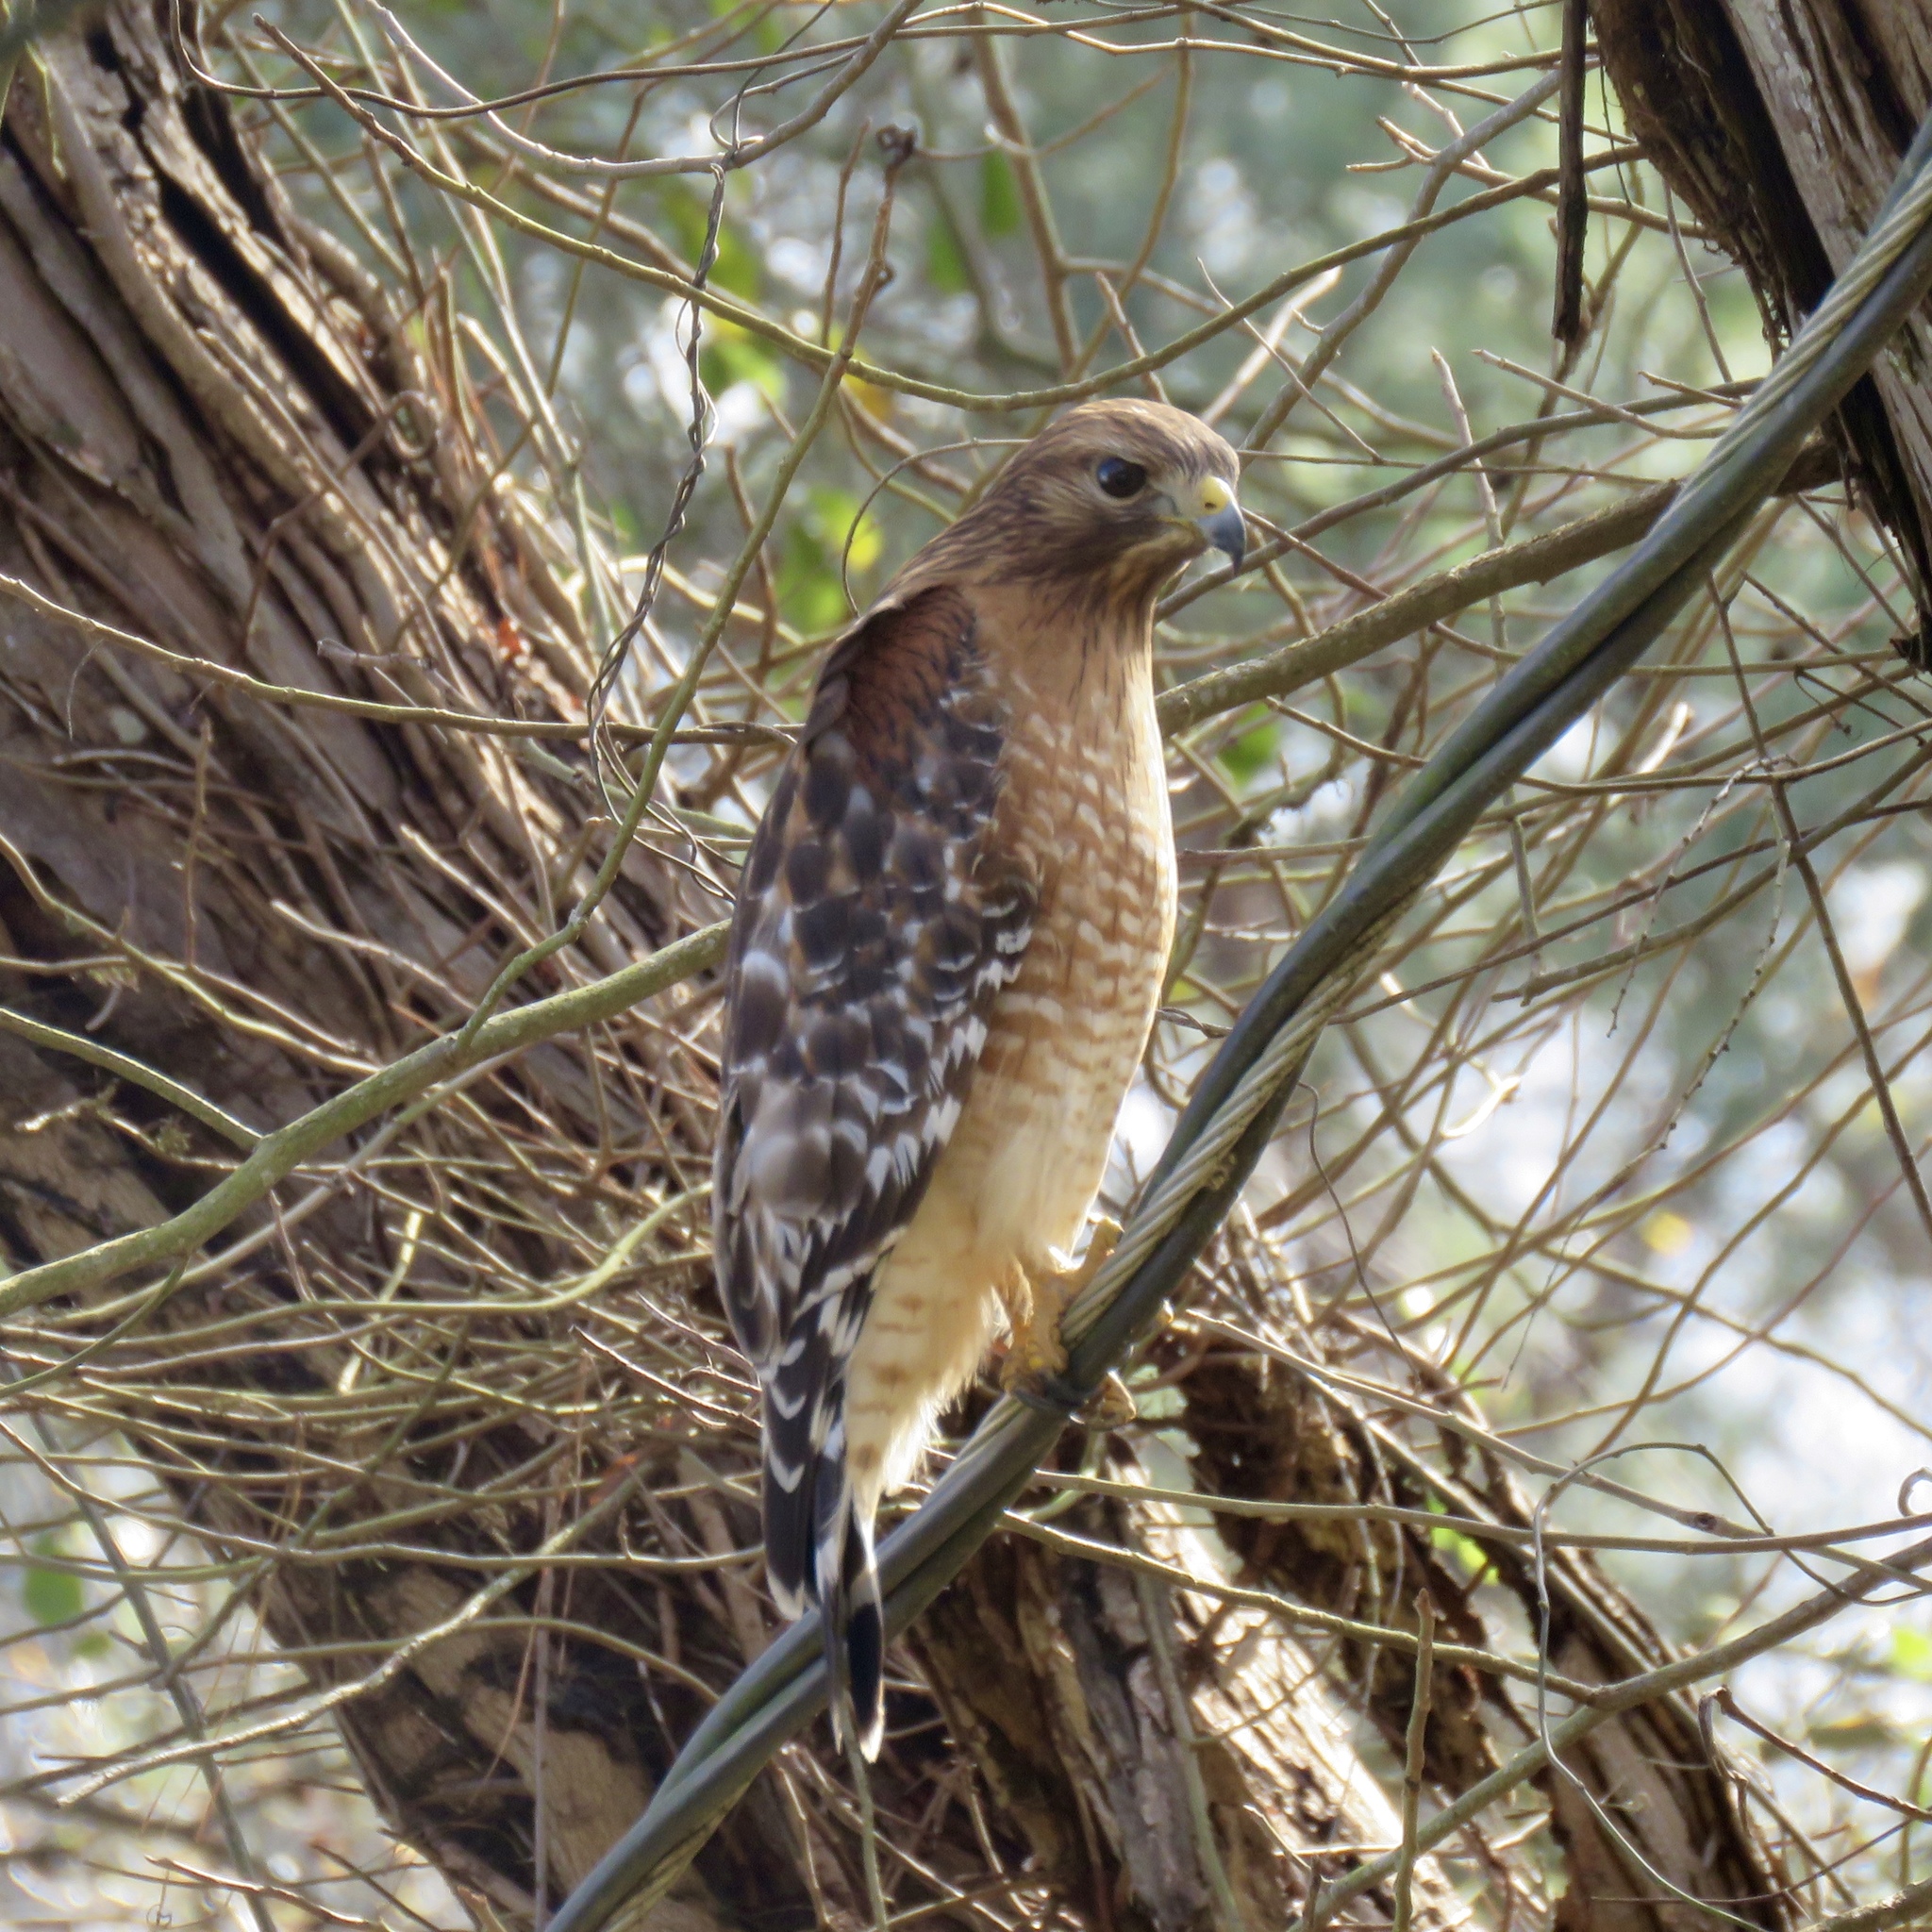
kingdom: Animalia
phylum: Chordata
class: Aves
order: Accipitriformes
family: Accipitridae
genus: Buteo
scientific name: Buteo lineatus
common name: Red-shouldered hawk
